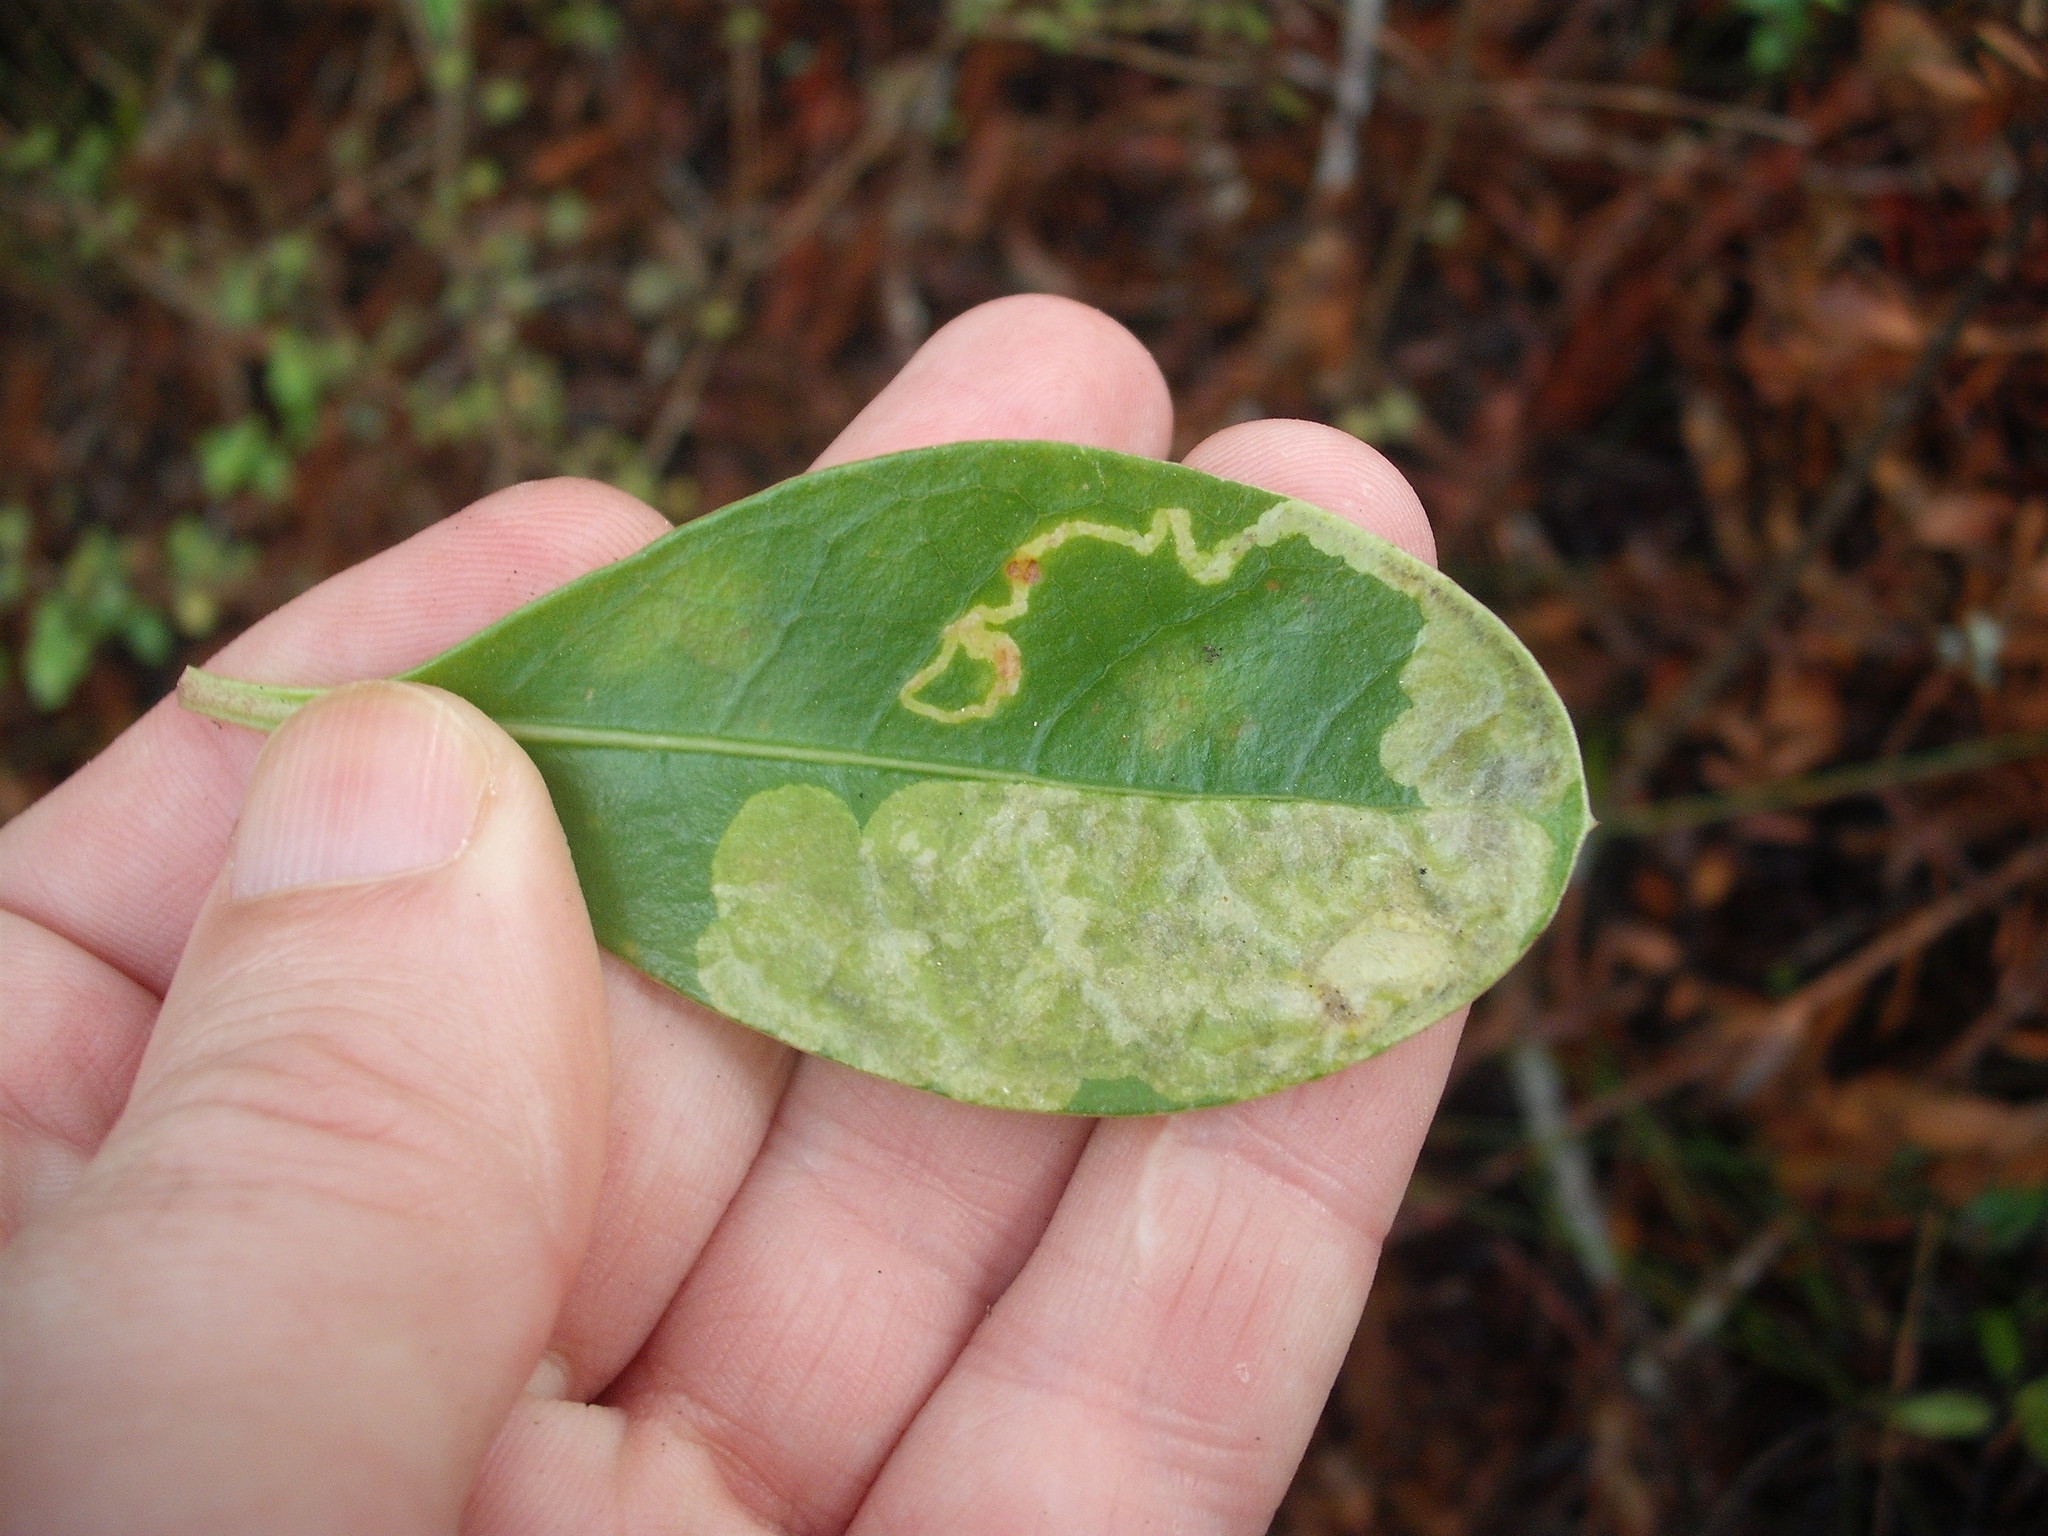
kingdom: Animalia
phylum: Arthropoda
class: Insecta
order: Lepidoptera
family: Gracillariidae
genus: Corythoxestis
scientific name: Corythoxestis zorionella
